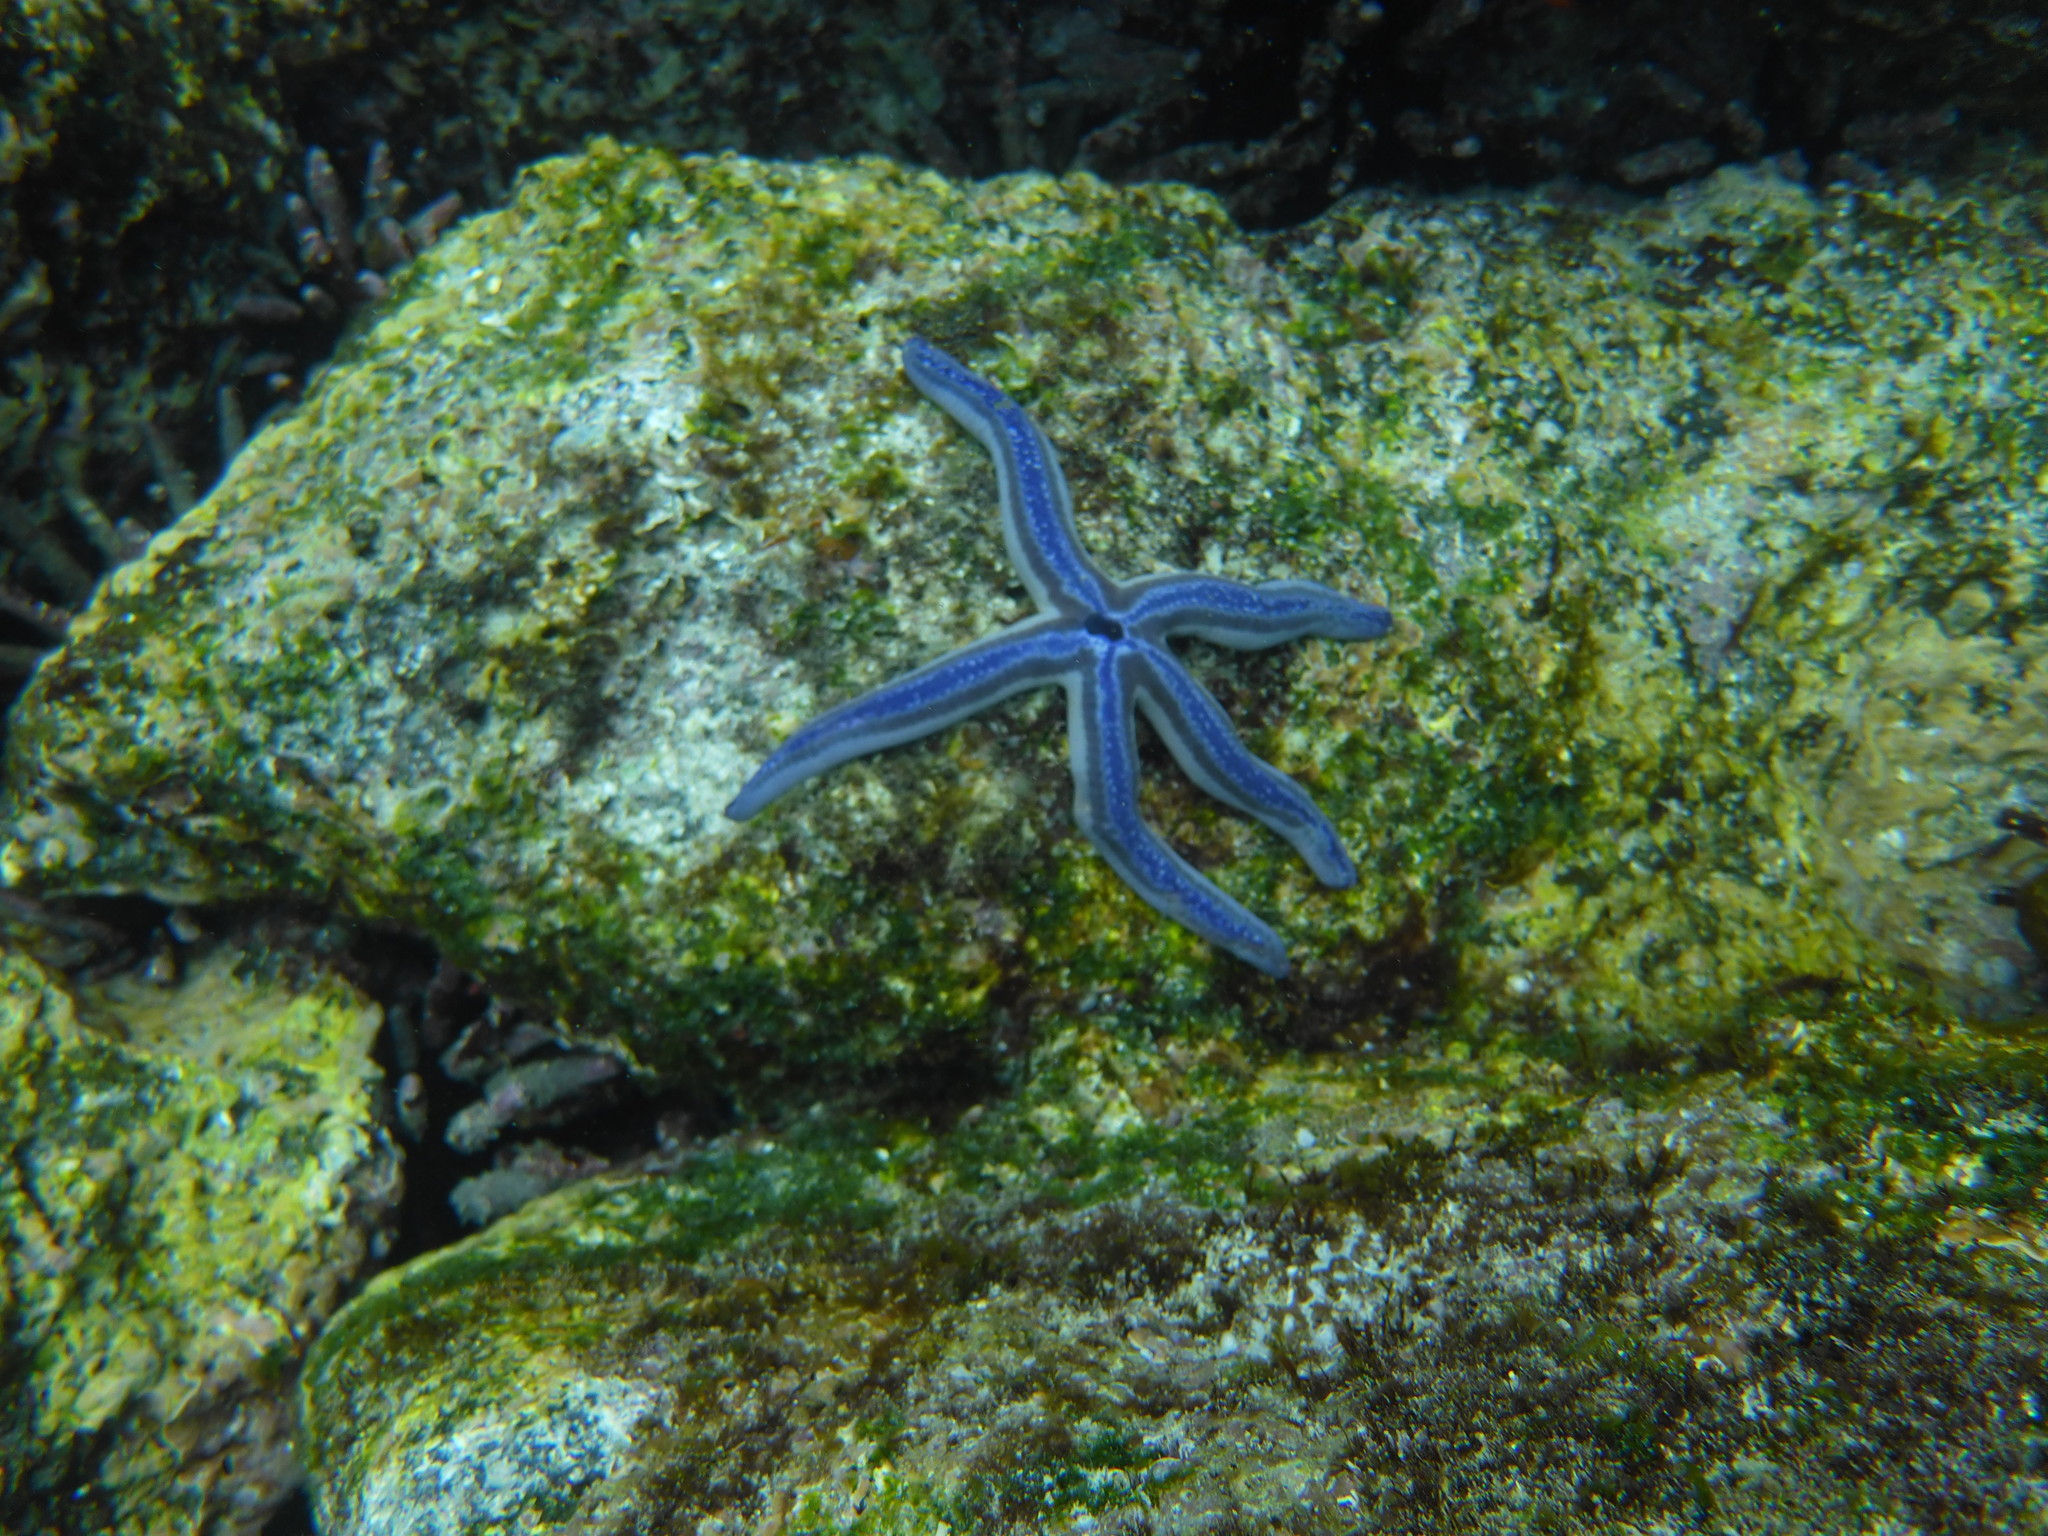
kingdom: Animalia
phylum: Echinodermata
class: Asteroidea
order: Valvatida
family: Ophidiasteridae
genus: Phataria
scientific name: Phataria unifascialis
